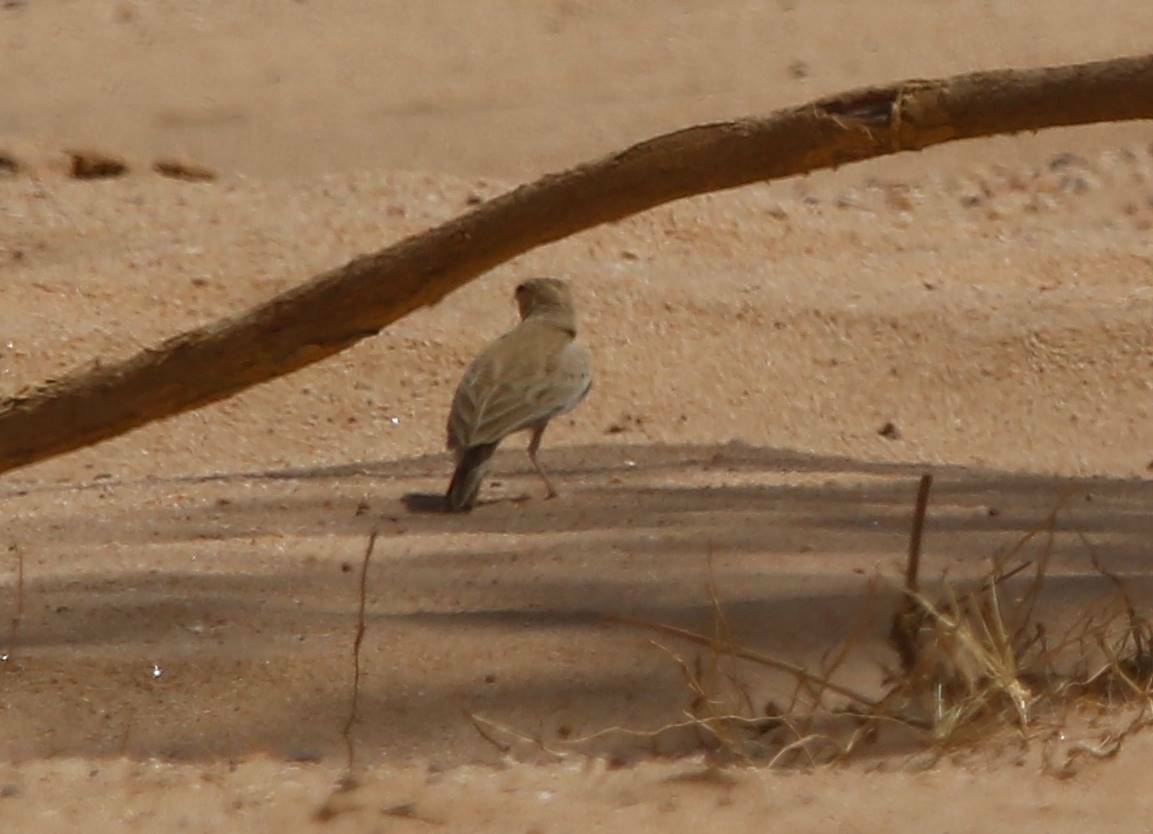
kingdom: Animalia
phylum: Chordata
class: Aves
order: Passeriformes
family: Alaudidae
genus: Ammomanes
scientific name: Ammomanes deserti
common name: Desert lark
